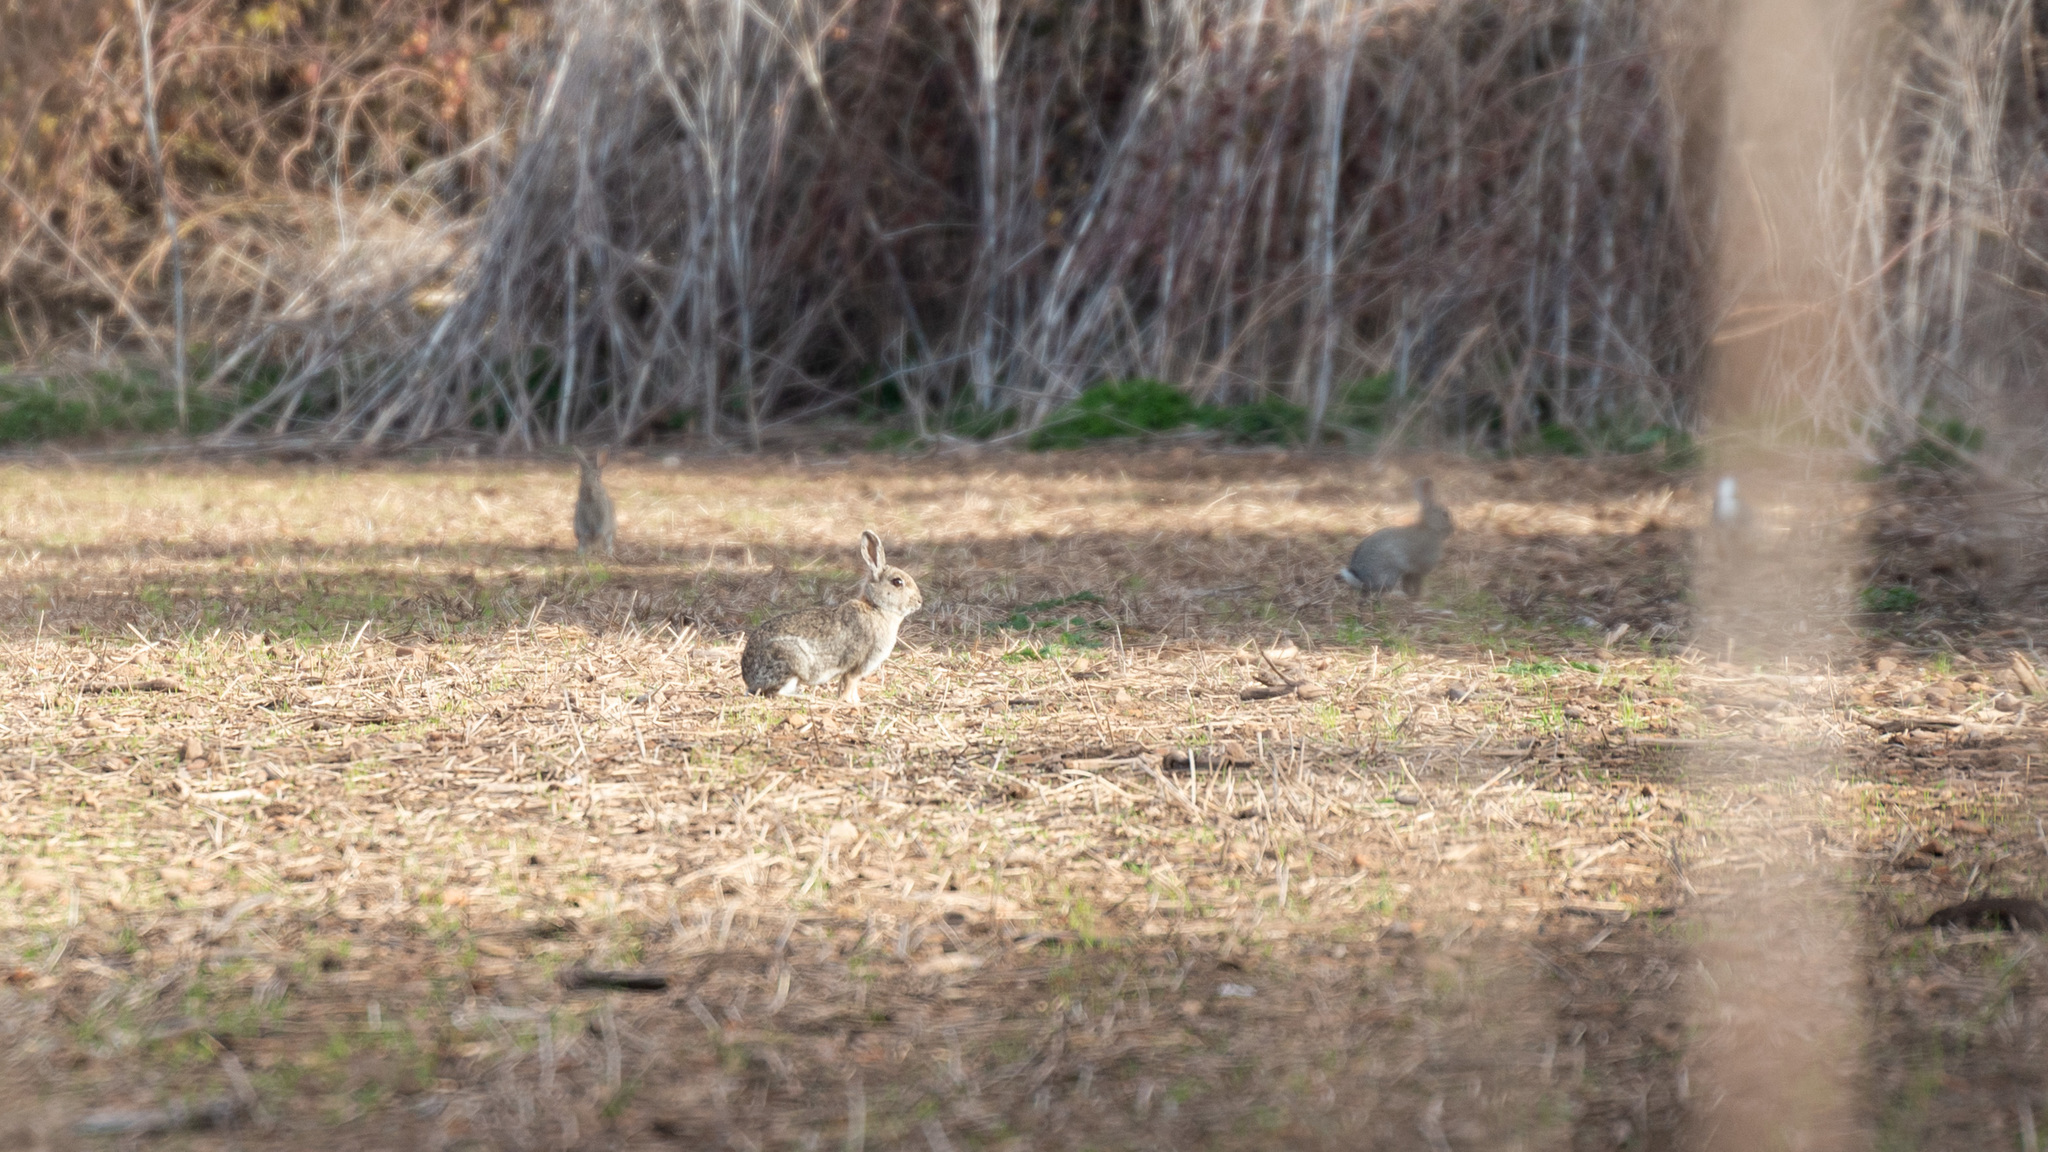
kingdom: Animalia
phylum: Chordata
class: Mammalia
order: Lagomorpha
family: Leporidae
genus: Oryctolagus
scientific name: Oryctolagus cuniculus
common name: European rabbit
